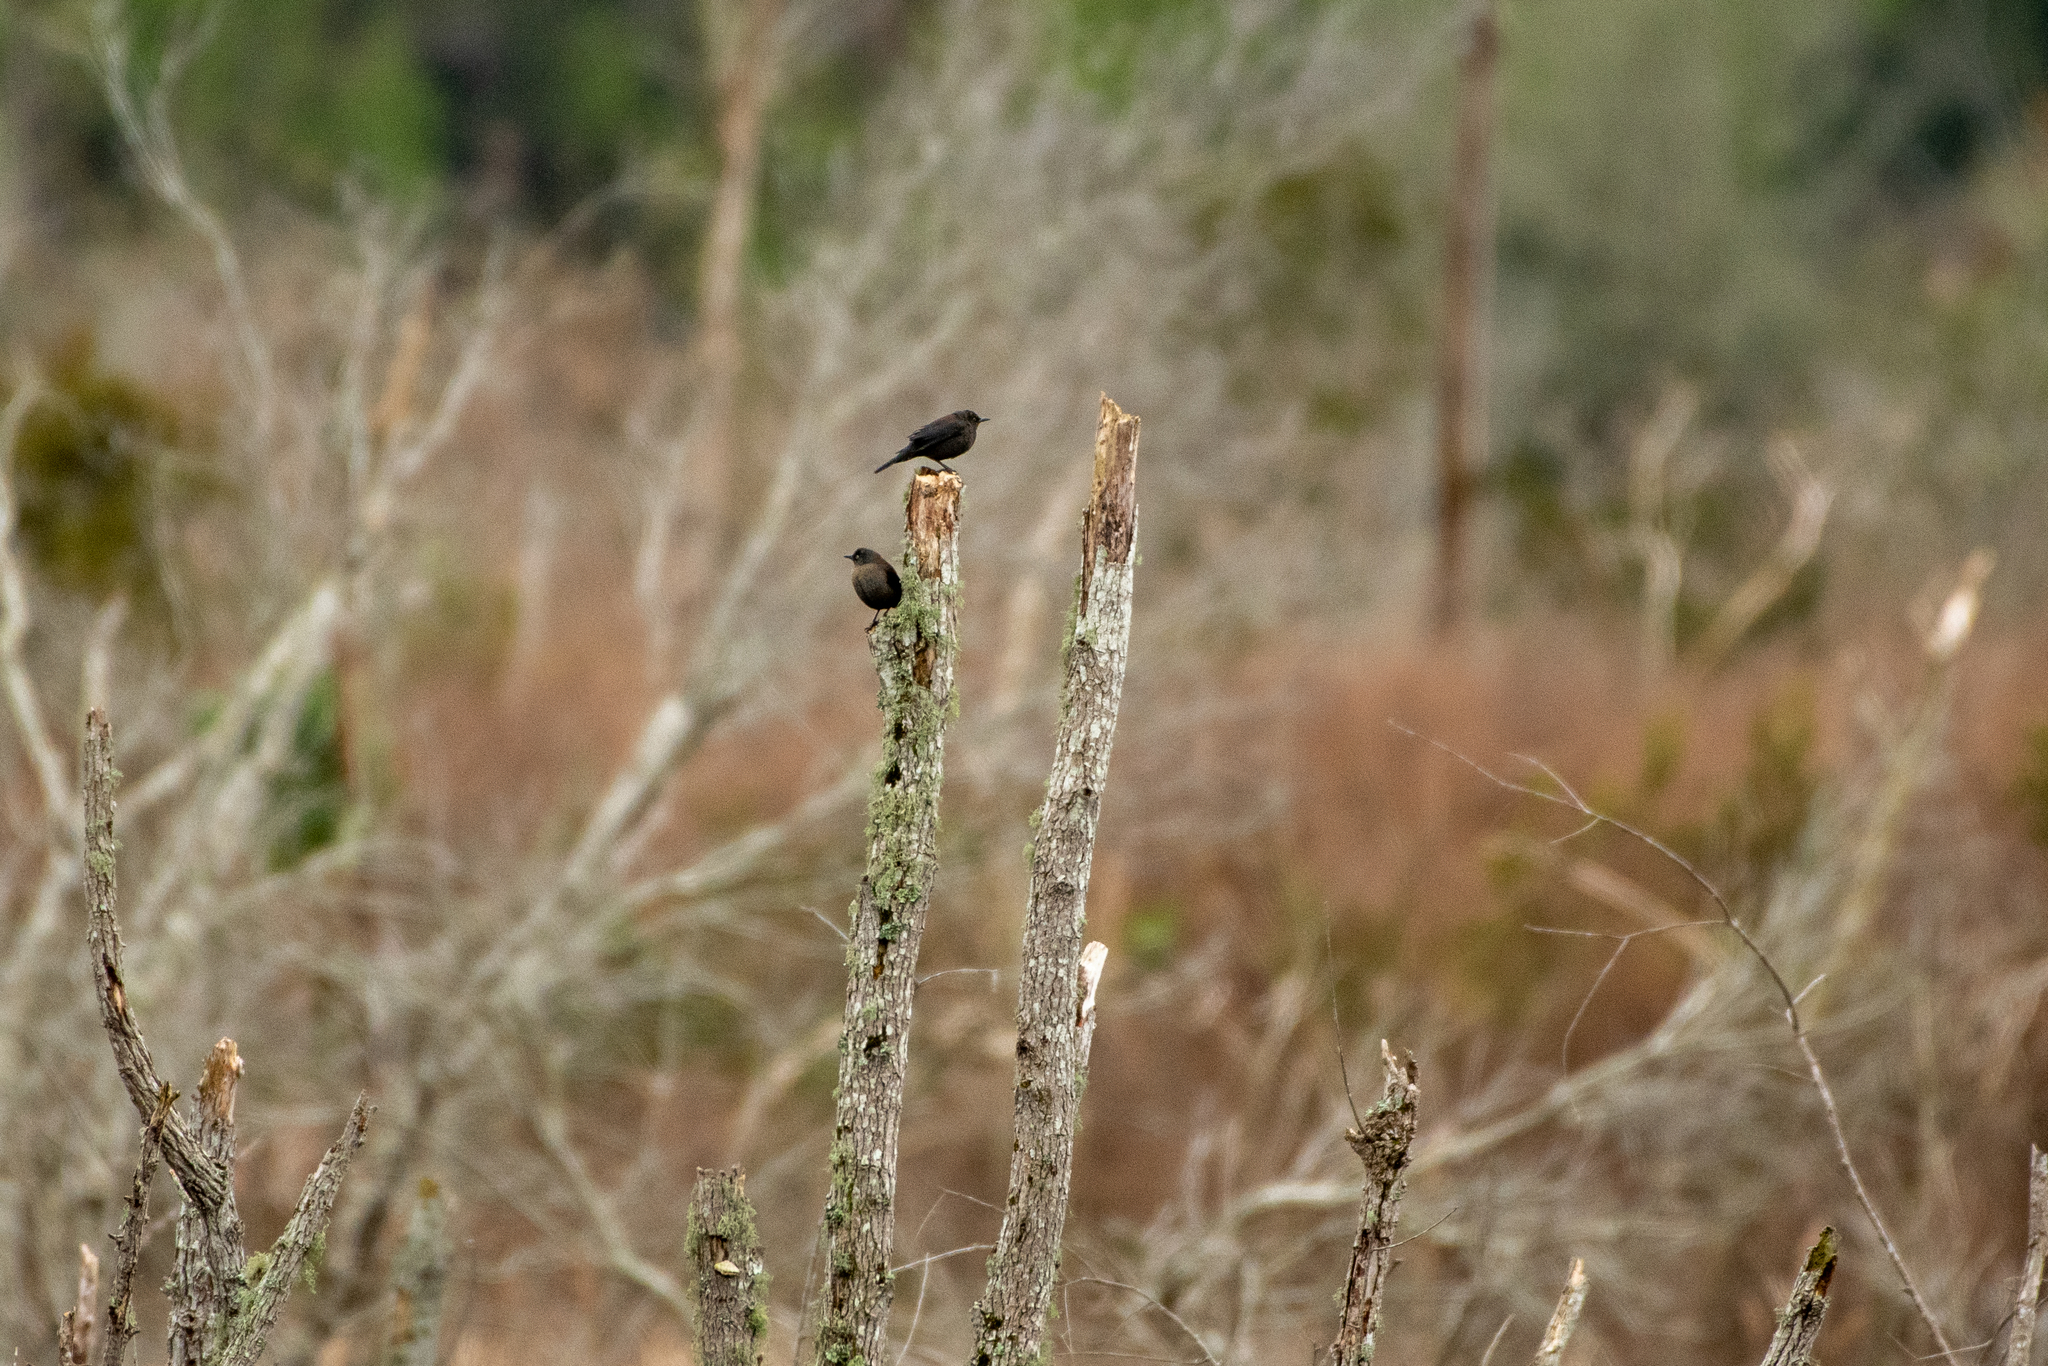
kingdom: Animalia
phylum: Chordata
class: Aves
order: Passeriformes
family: Icteridae
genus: Euphagus
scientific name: Euphagus carolinus
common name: Rusty blackbird
